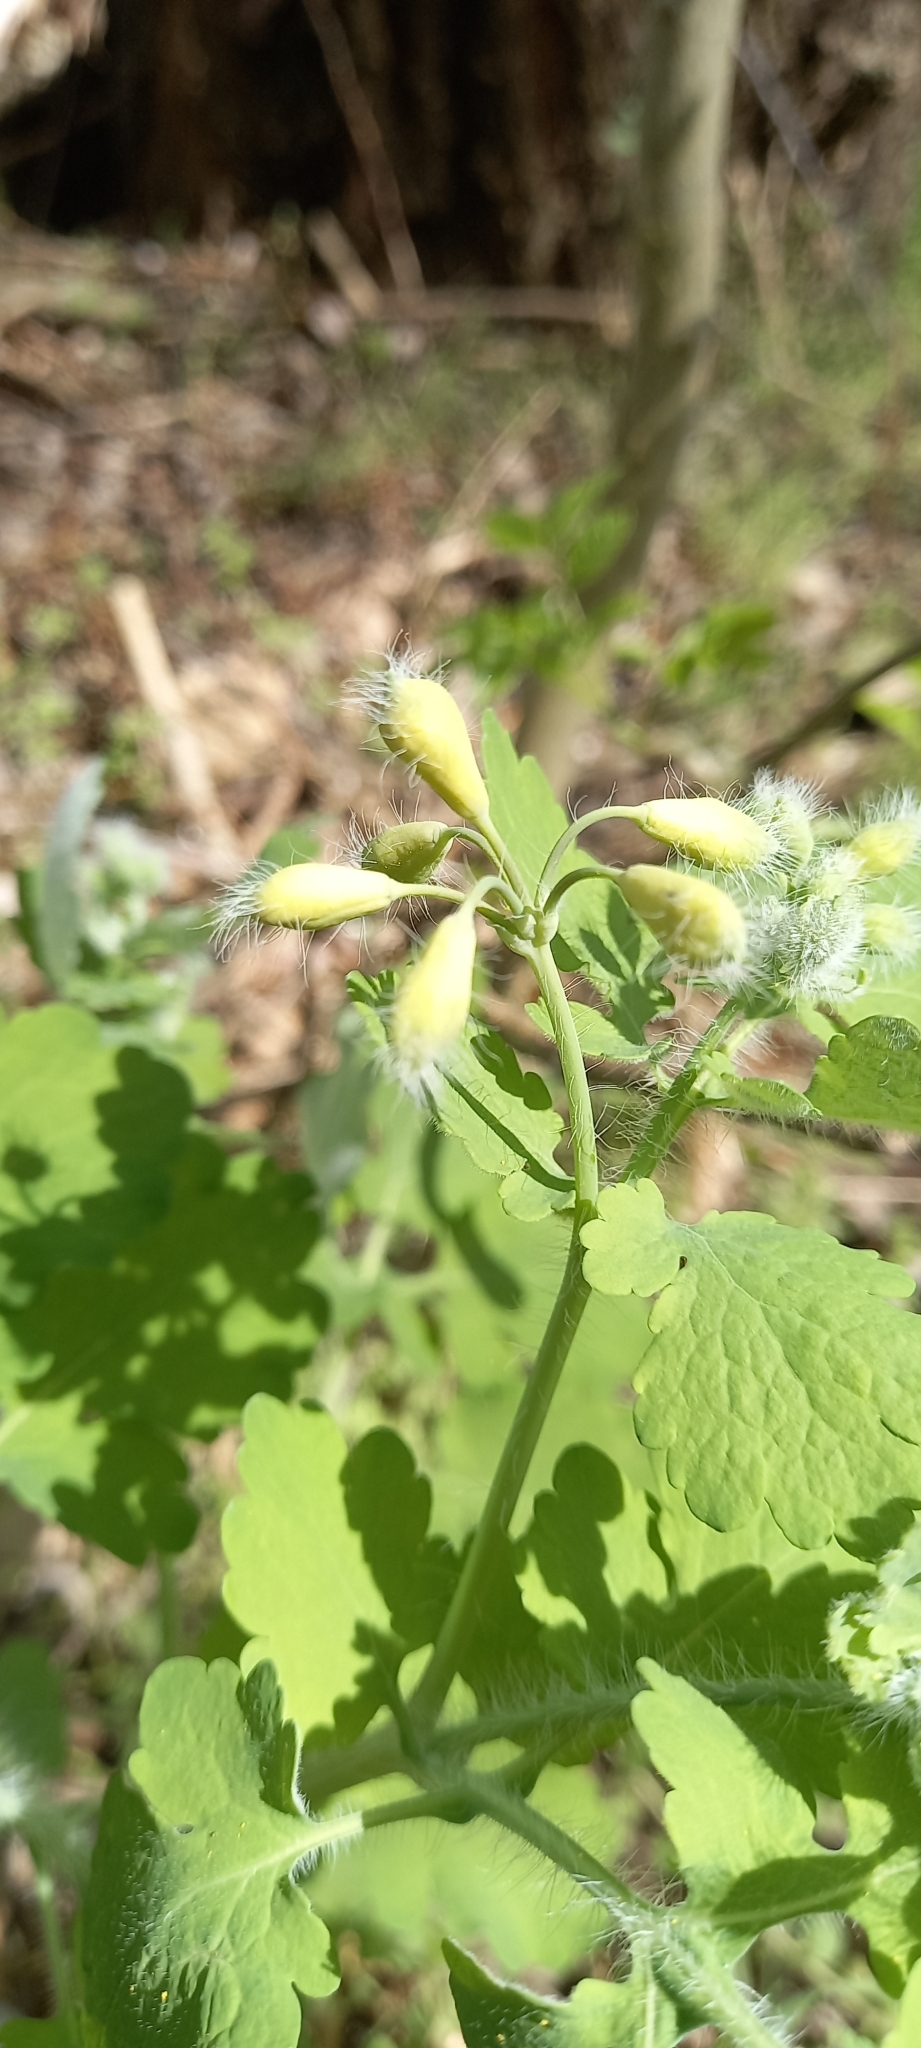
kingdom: Plantae
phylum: Tracheophyta
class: Magnoliopsida
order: Ranunculales
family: Papaveraceae
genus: Chelidonium
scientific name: Chelidonium majus
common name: Greater celandine
